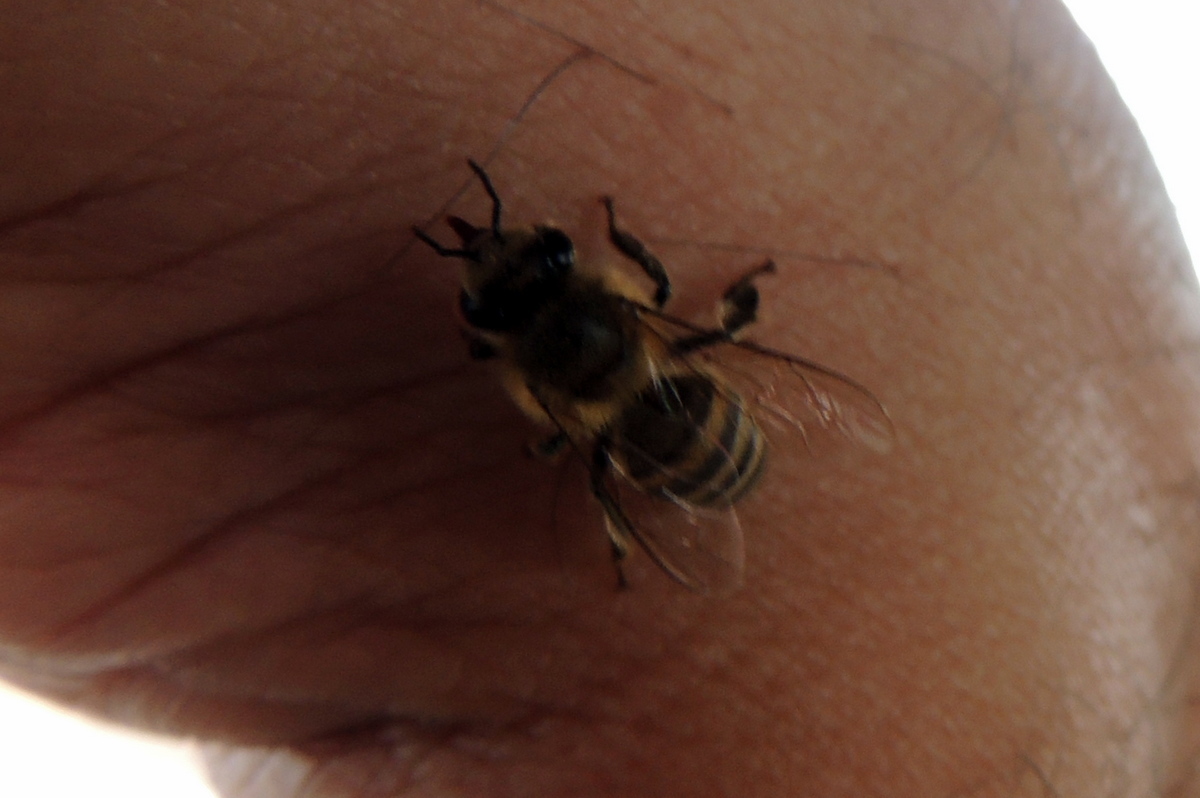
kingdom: Animalia
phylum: Arthropoda
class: Insecta
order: Hymenoptera
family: Apidae
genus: Apis
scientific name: Apis mellifera
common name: Honey bee
